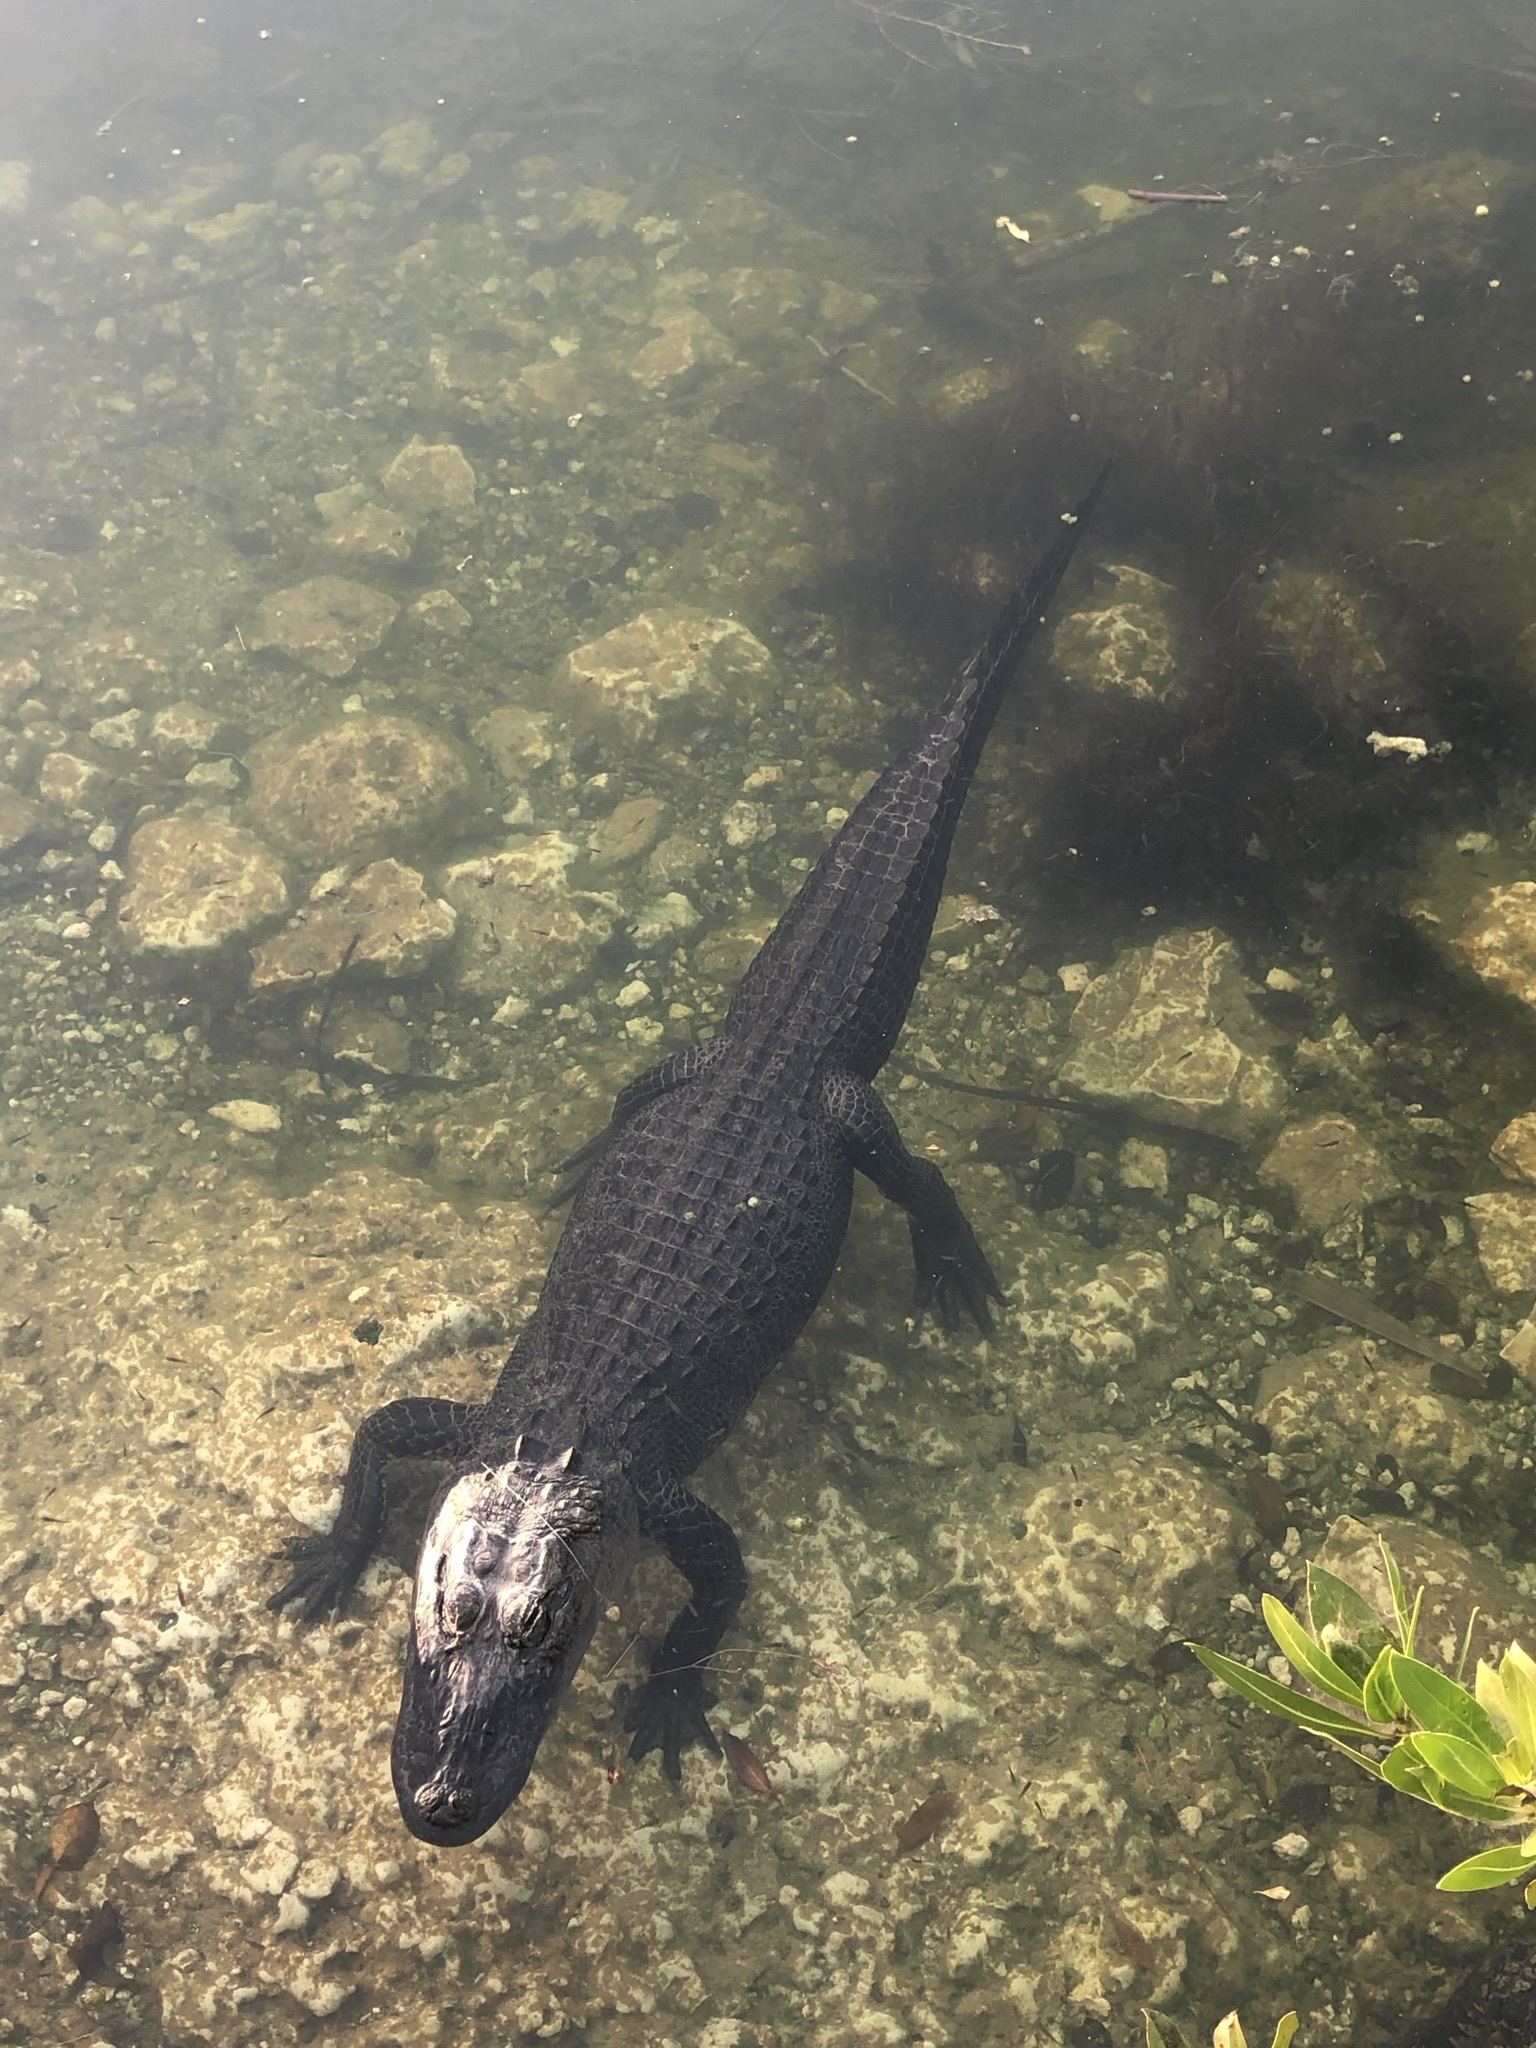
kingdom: Animalia
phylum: Chordata
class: Crocodylia
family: Alligatoridae
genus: Alligator
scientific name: Alligator mississippiensis
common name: American alligator
